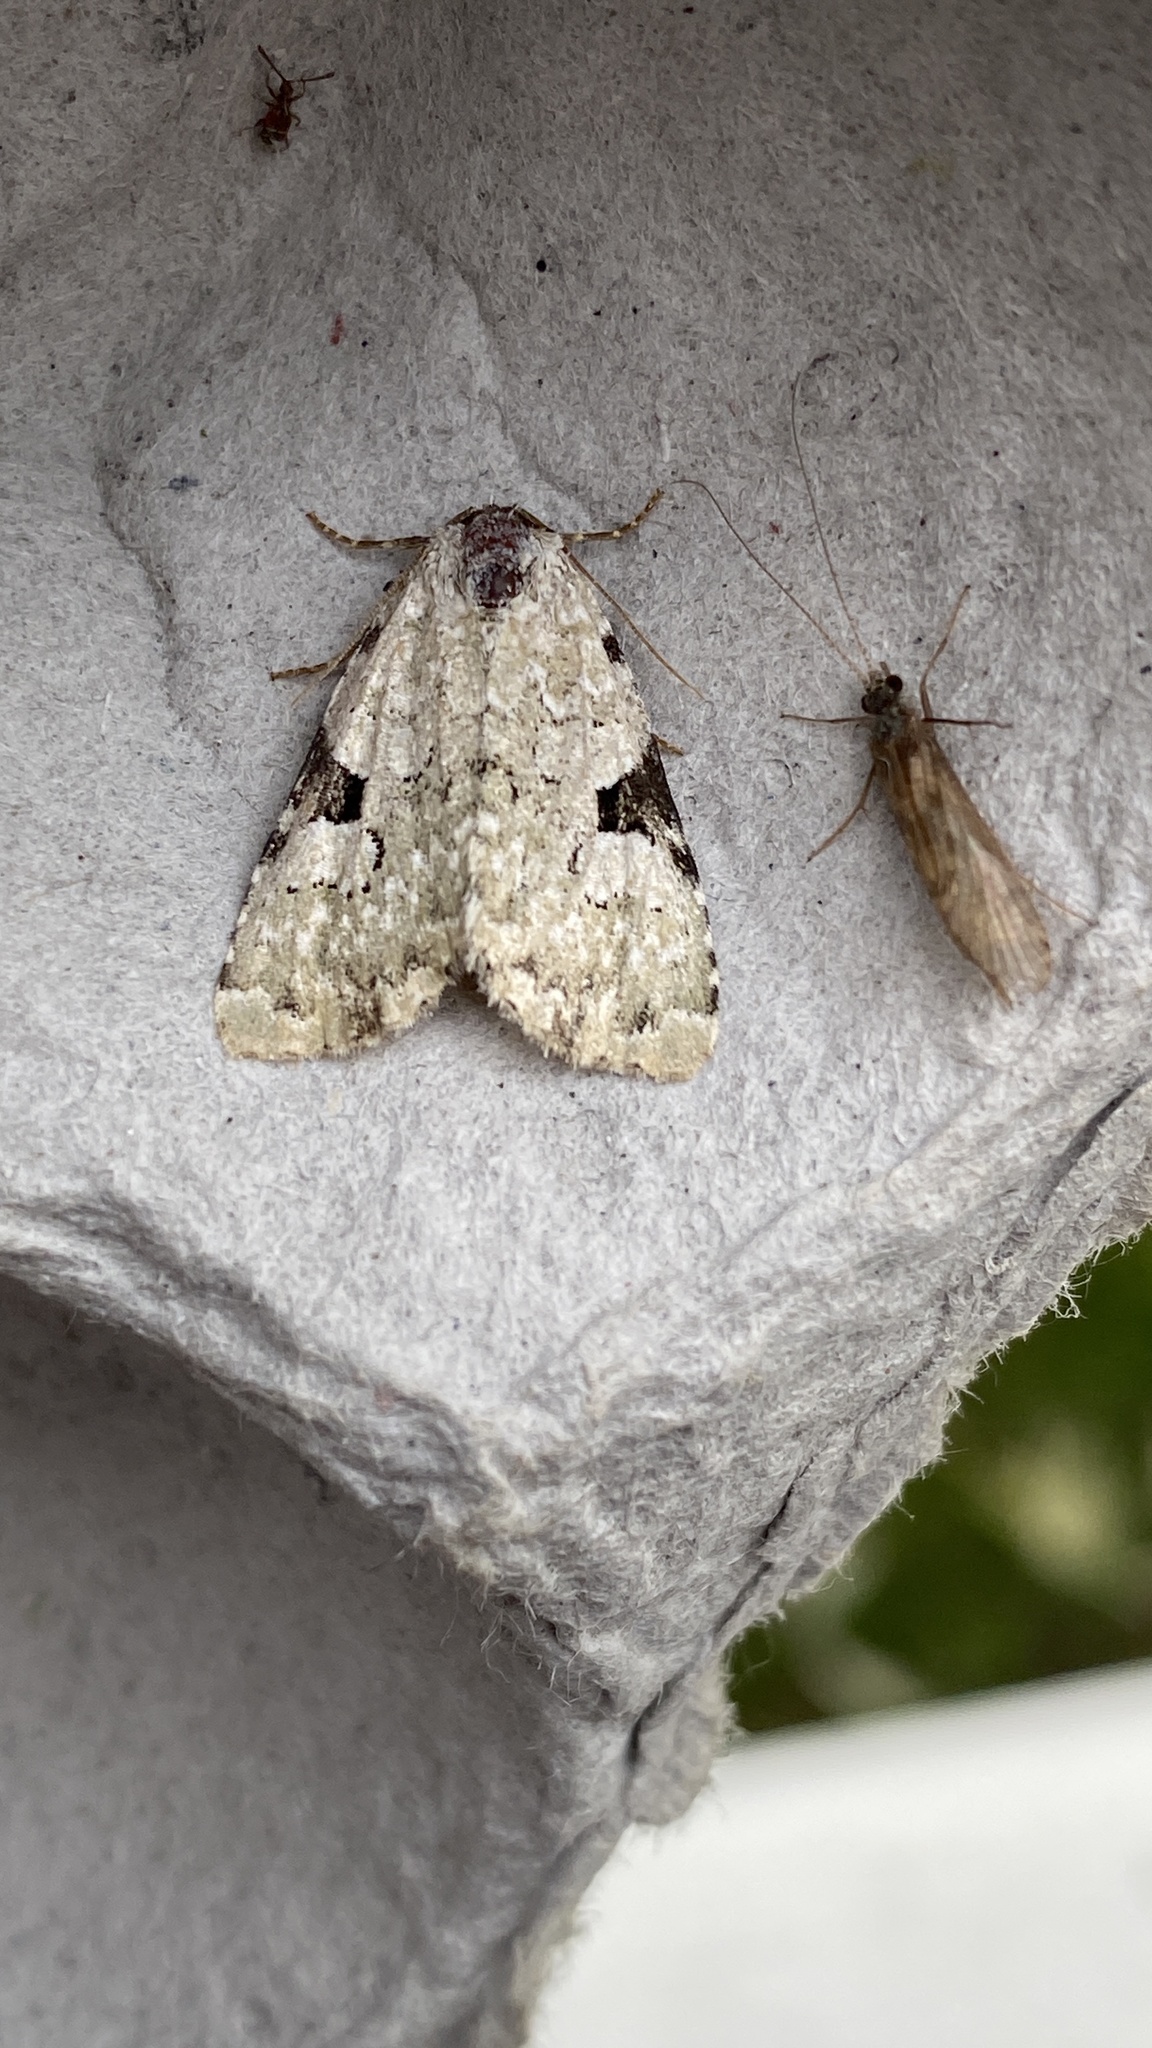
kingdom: Animalia
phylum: Arthropoda
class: Insecta
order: Lepidoptera
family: Noctuidae
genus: Leuconycta
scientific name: Leuconycta diphteroides
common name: Green leuconycta moth
